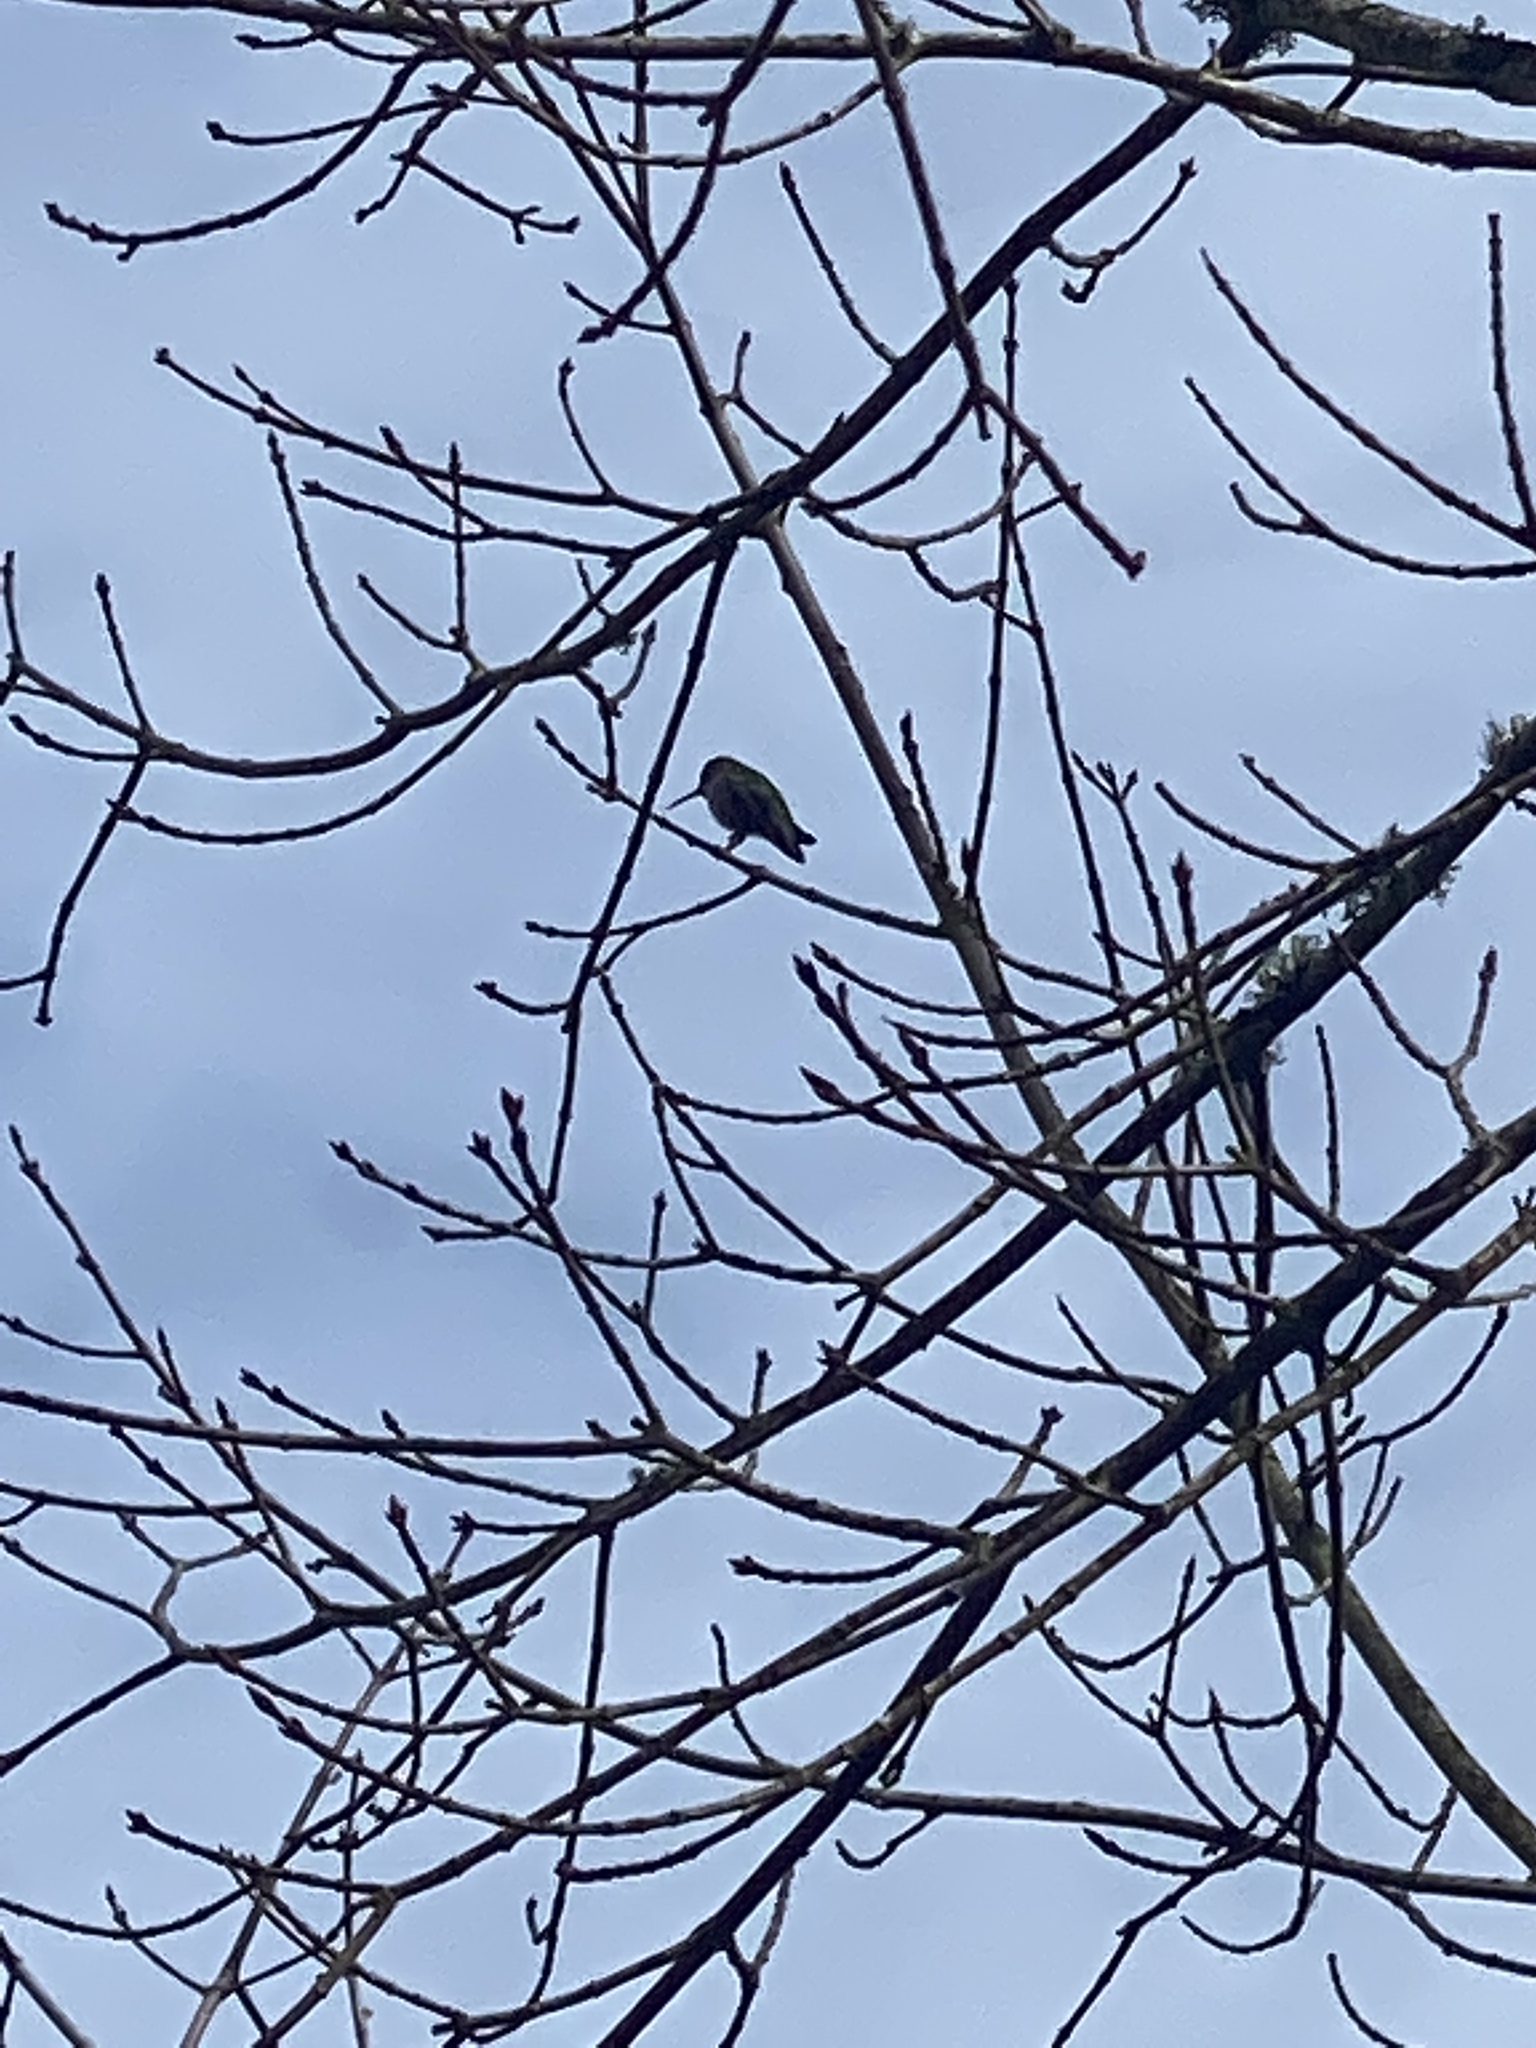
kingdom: Animalia
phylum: Chordata
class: Aves
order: Apodiformes
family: Trochilidae
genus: Calypte
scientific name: Calypte anna
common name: Anna's hummingbird
